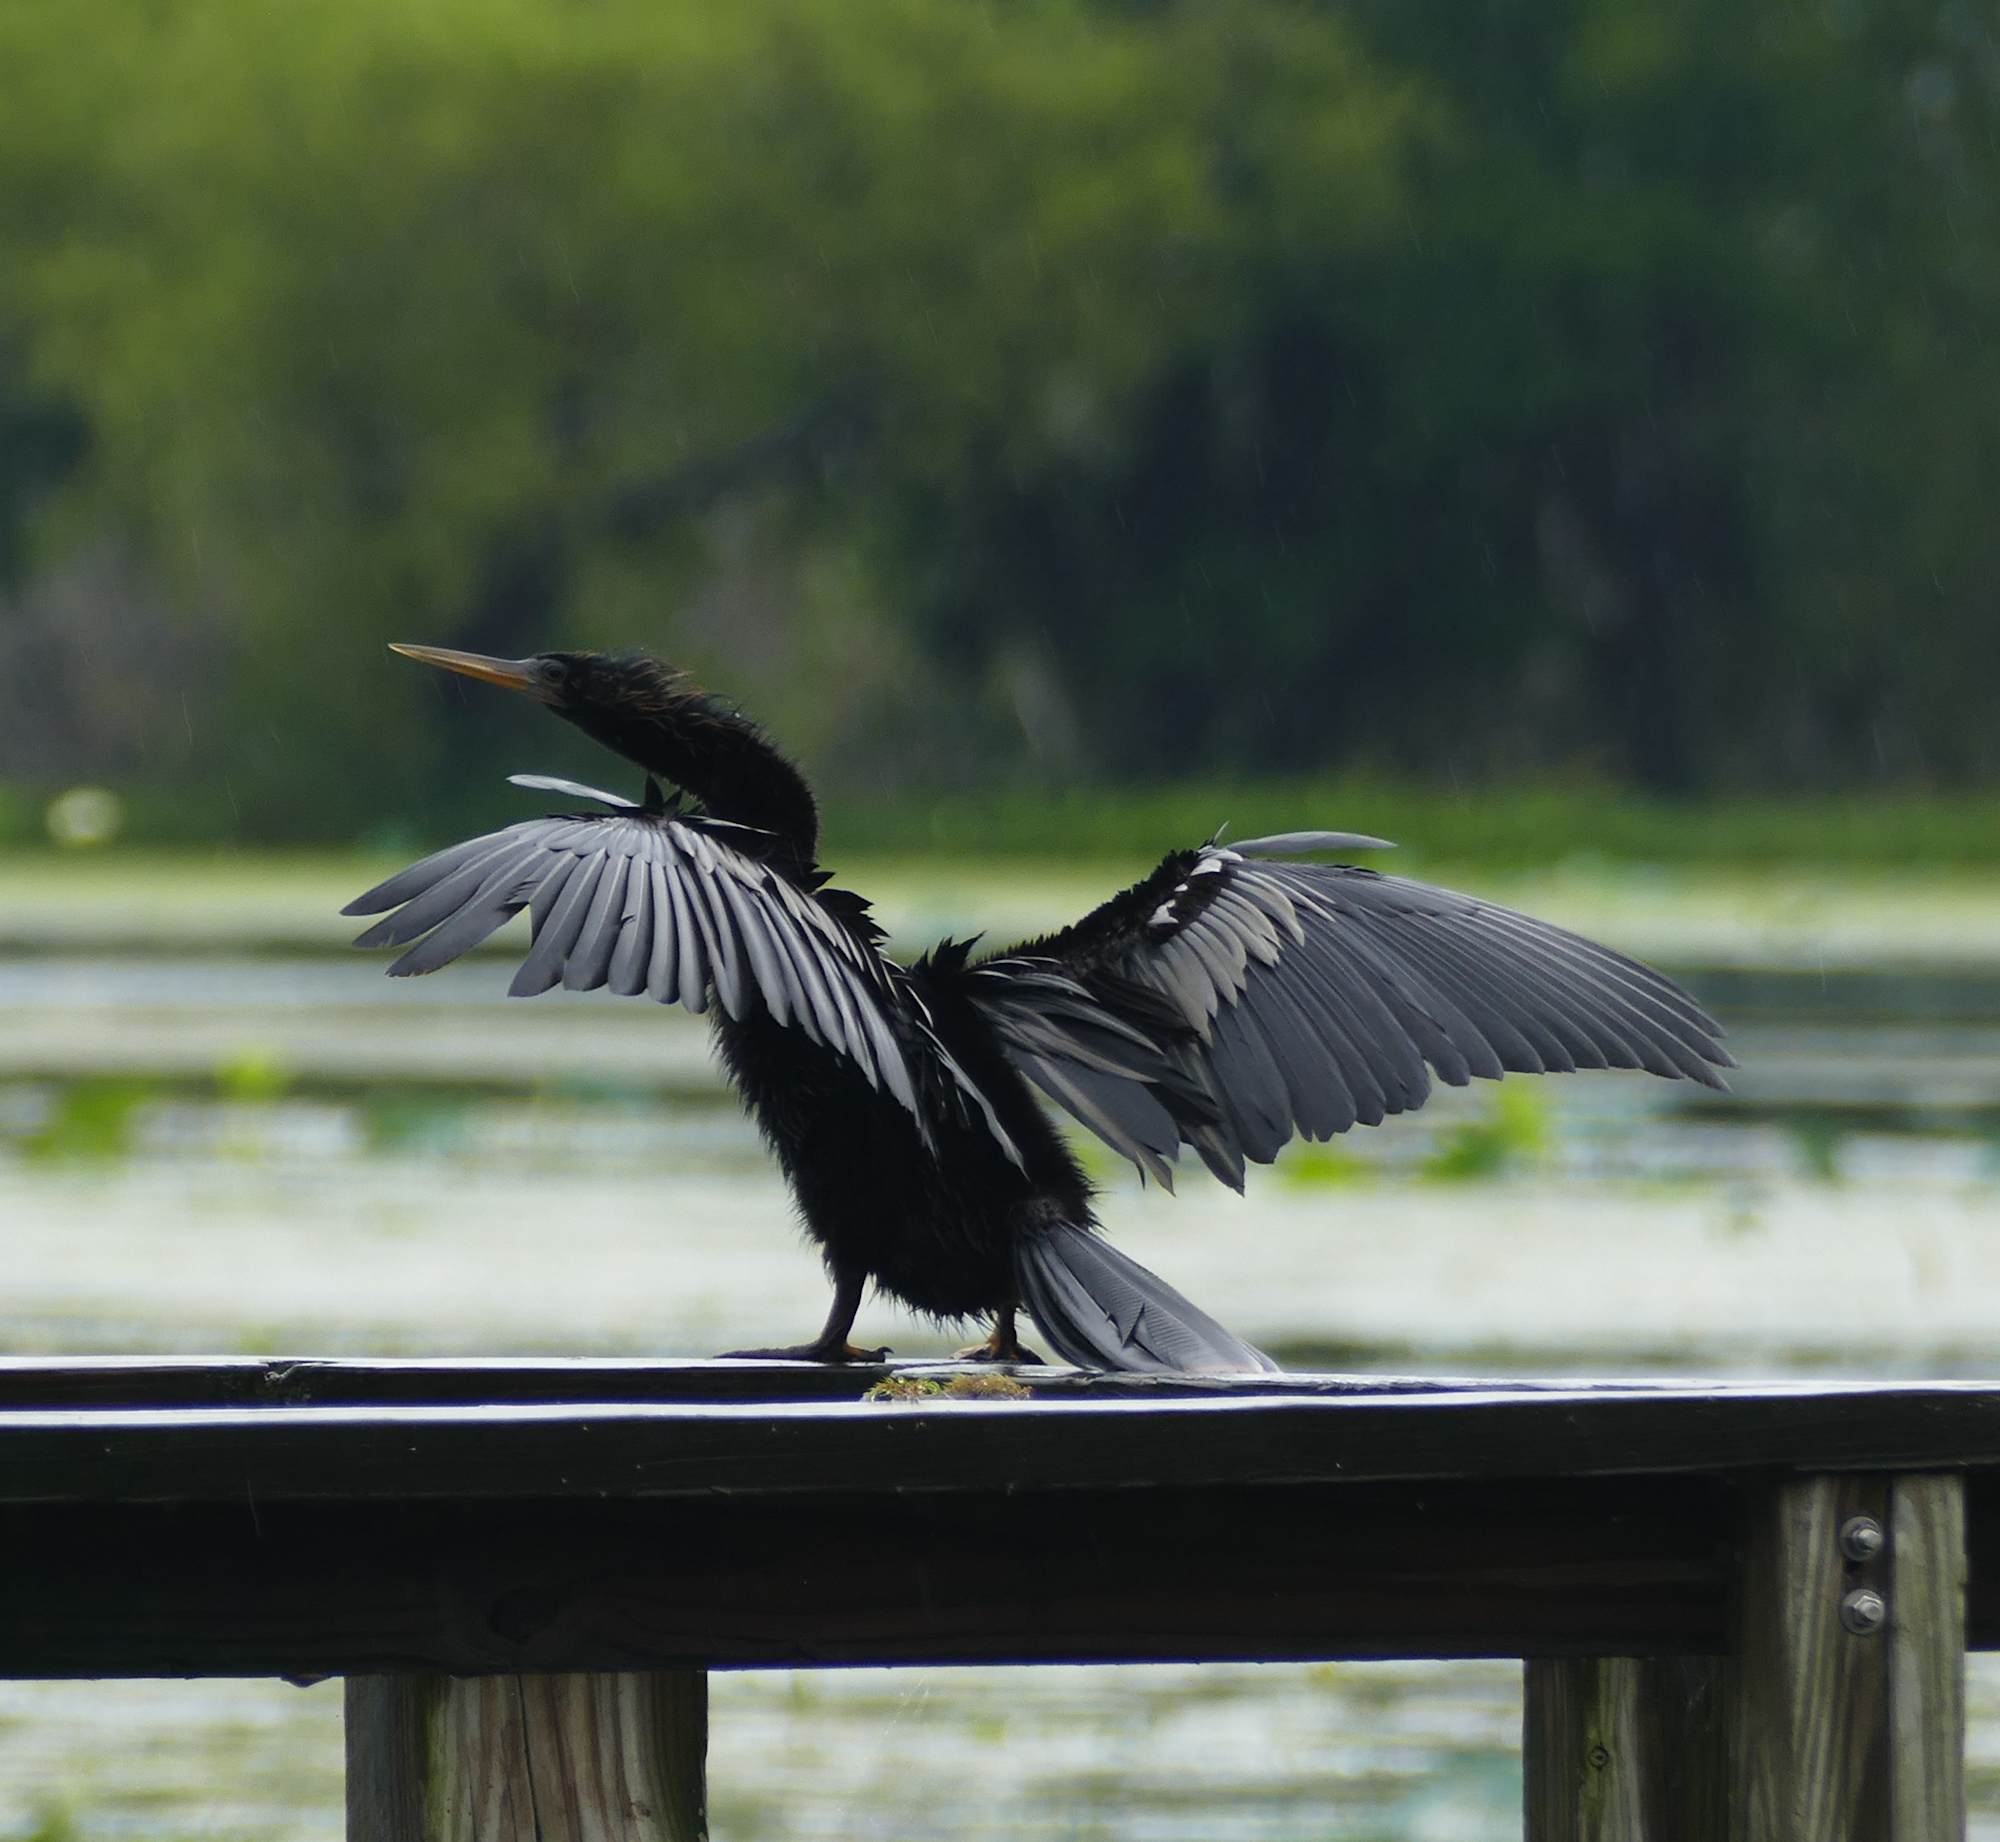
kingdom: Animalia
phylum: Chordata
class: Aves
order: Suliformes
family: Anhingidae
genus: Anhinga
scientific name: Anhinga anhinga
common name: Anhinga
